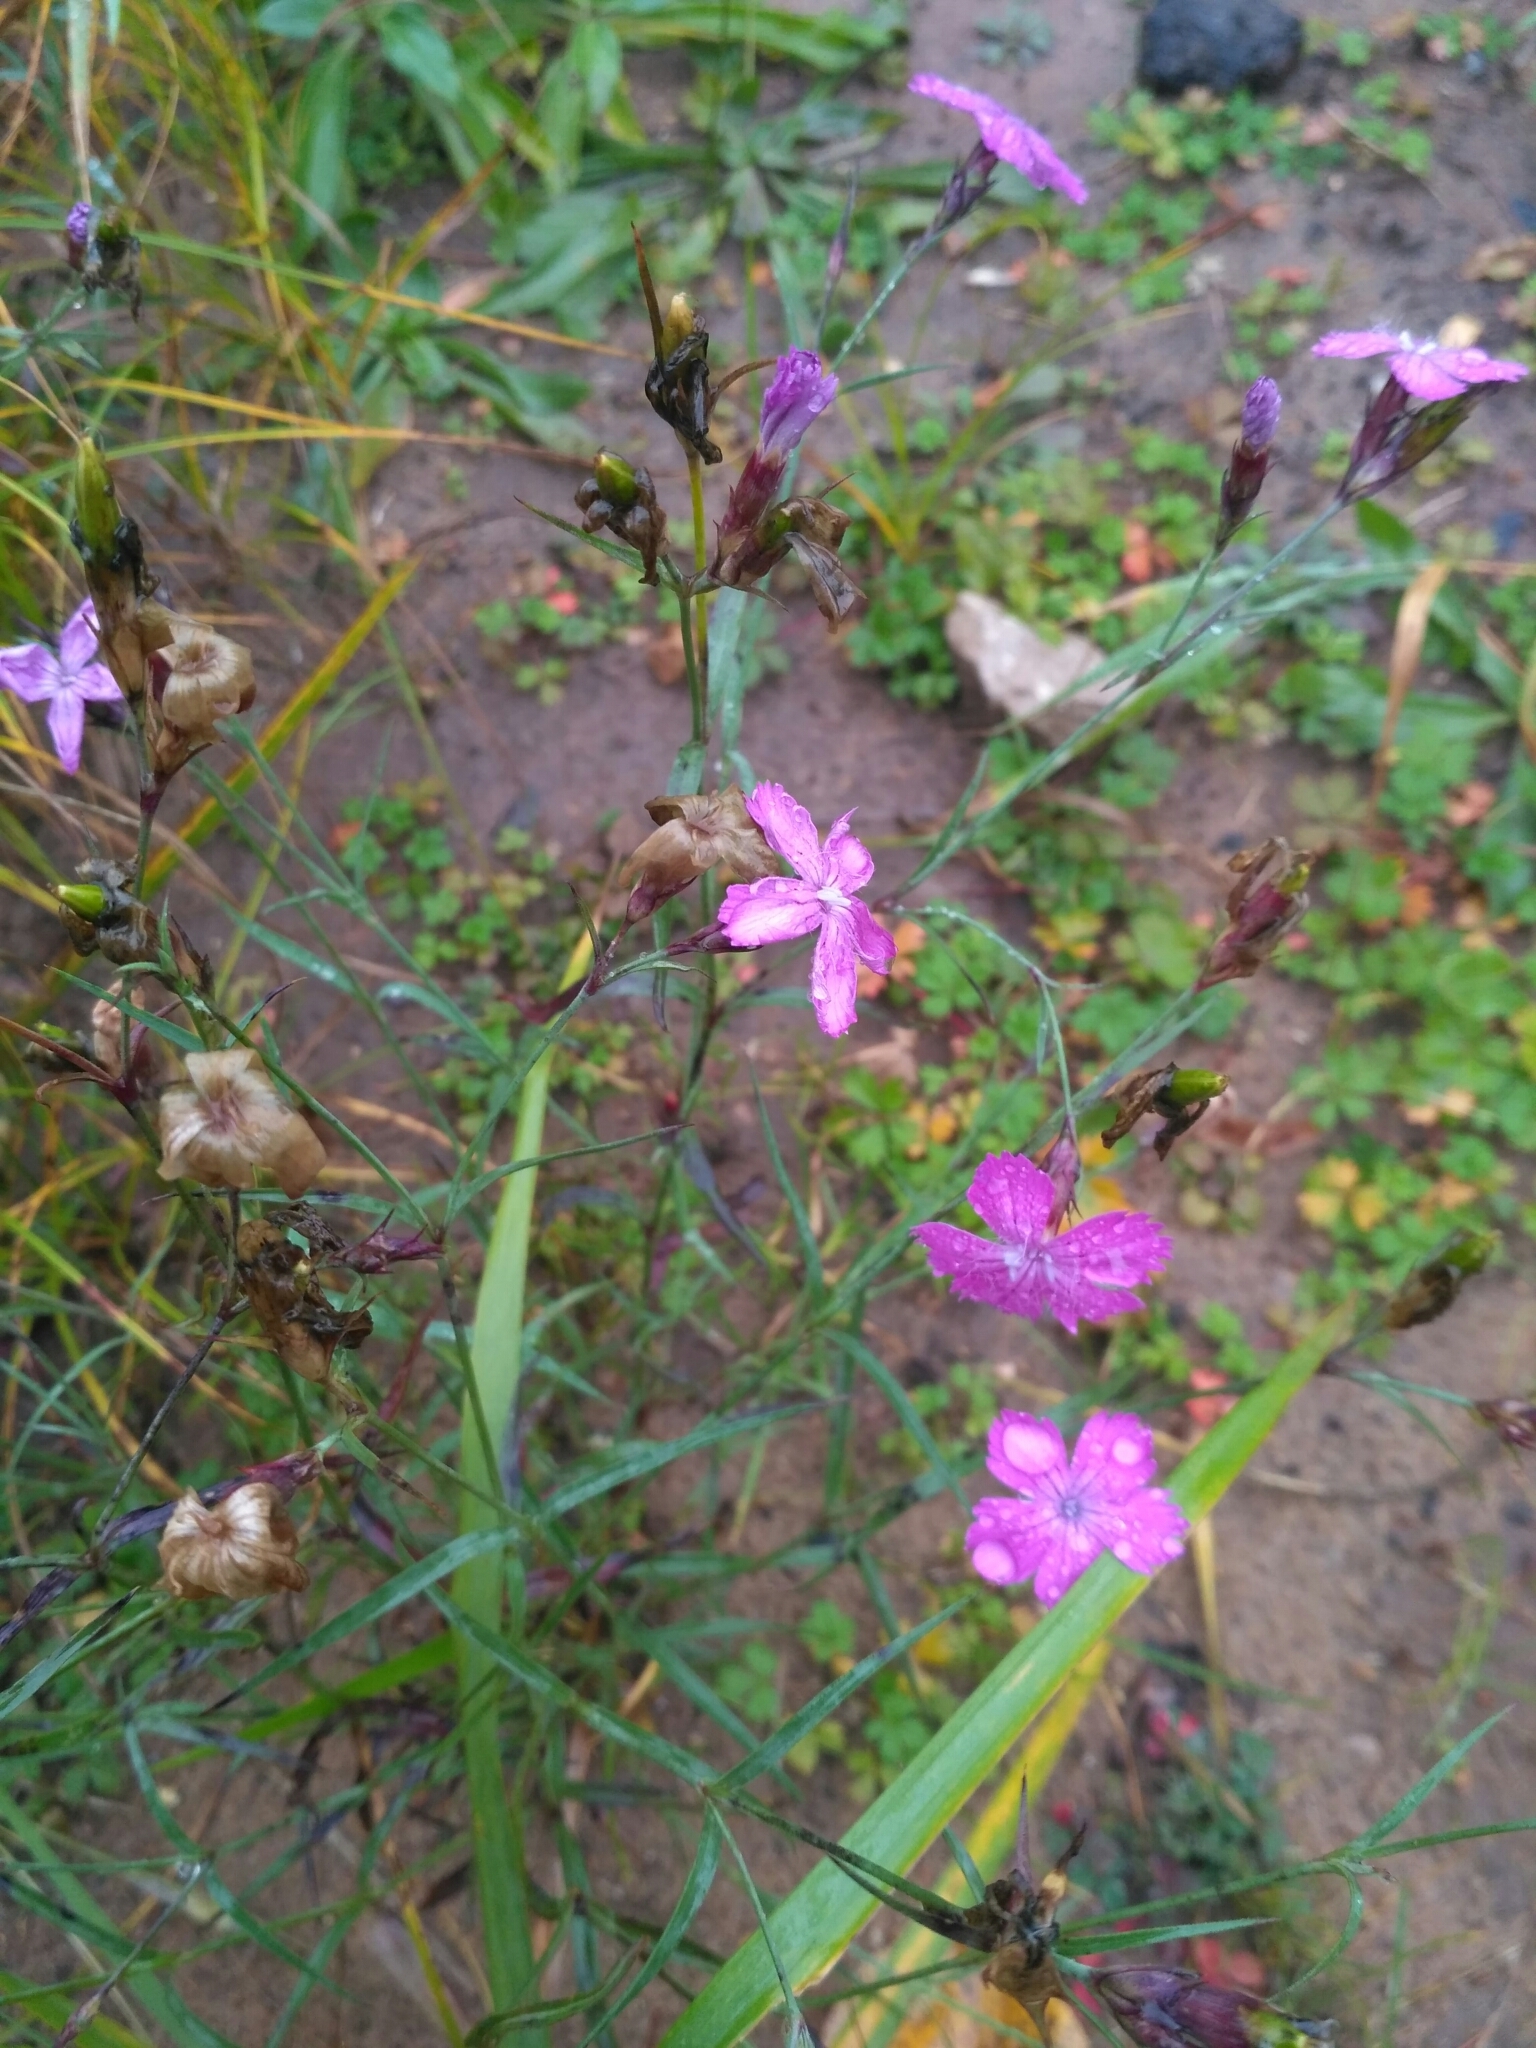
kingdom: Plantae
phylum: Tracheophyta
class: Magnoliopsida
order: Caryophyllales
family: Caryophyllaceae
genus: Dianthus
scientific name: Dianthus chinensis
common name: Rainbow pink
